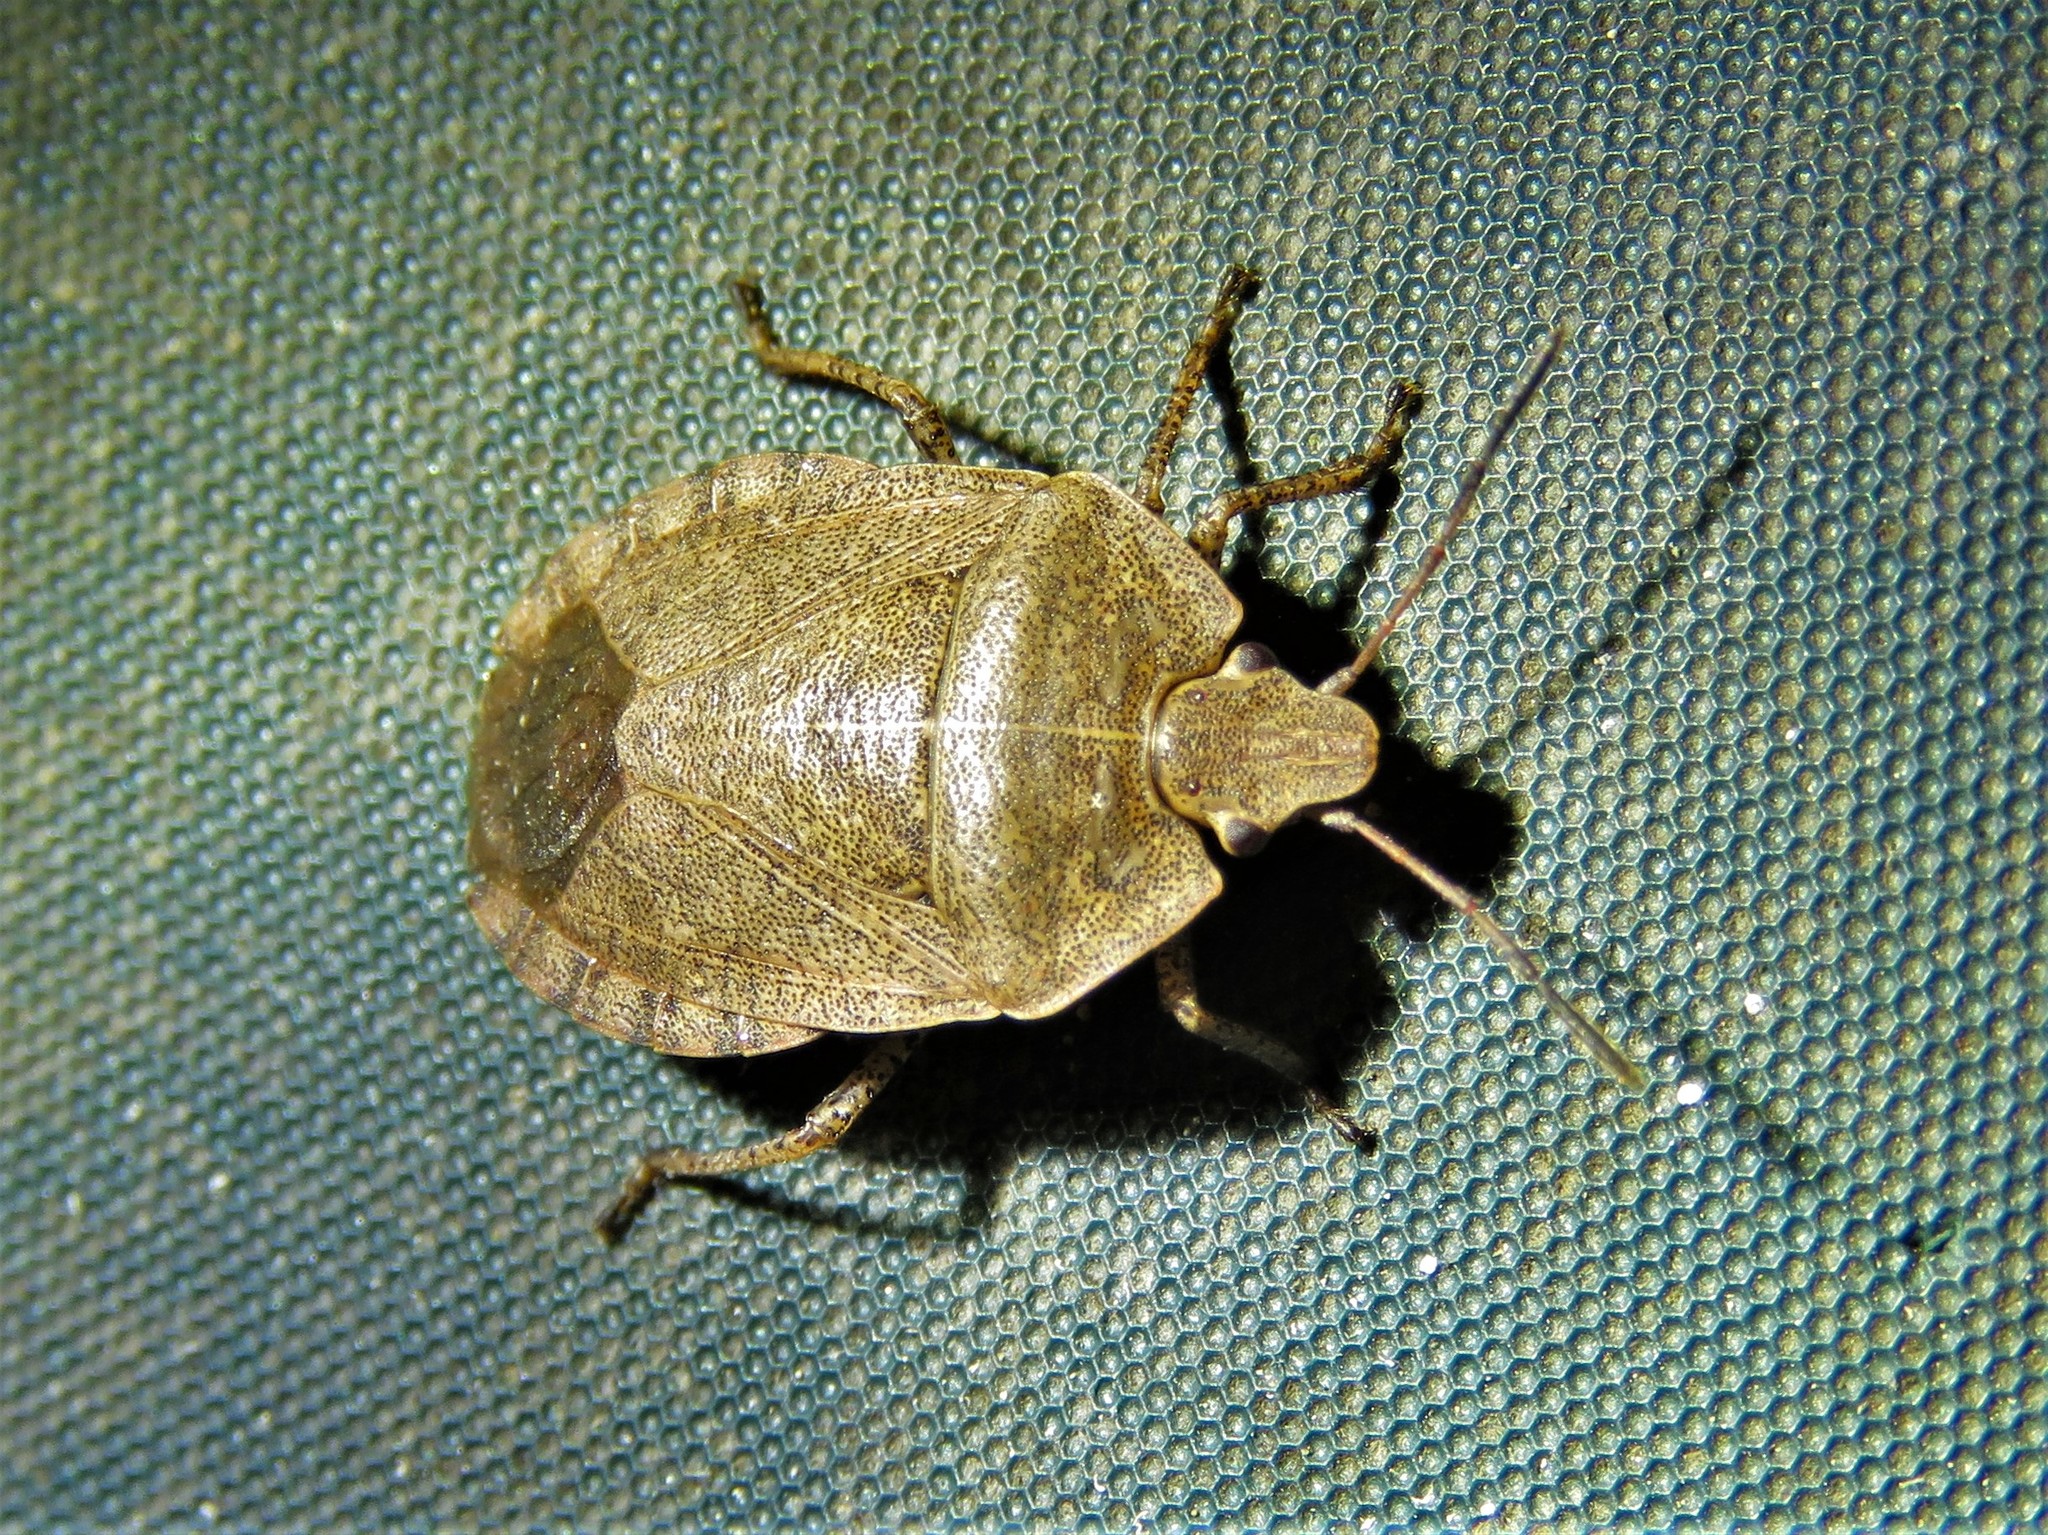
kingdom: Animalia
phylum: Arthropoda
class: Insecta
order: Hemiptera
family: Pentatomidae
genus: Menecles
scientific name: Menecles insertus
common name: Elf shoe stink bug
